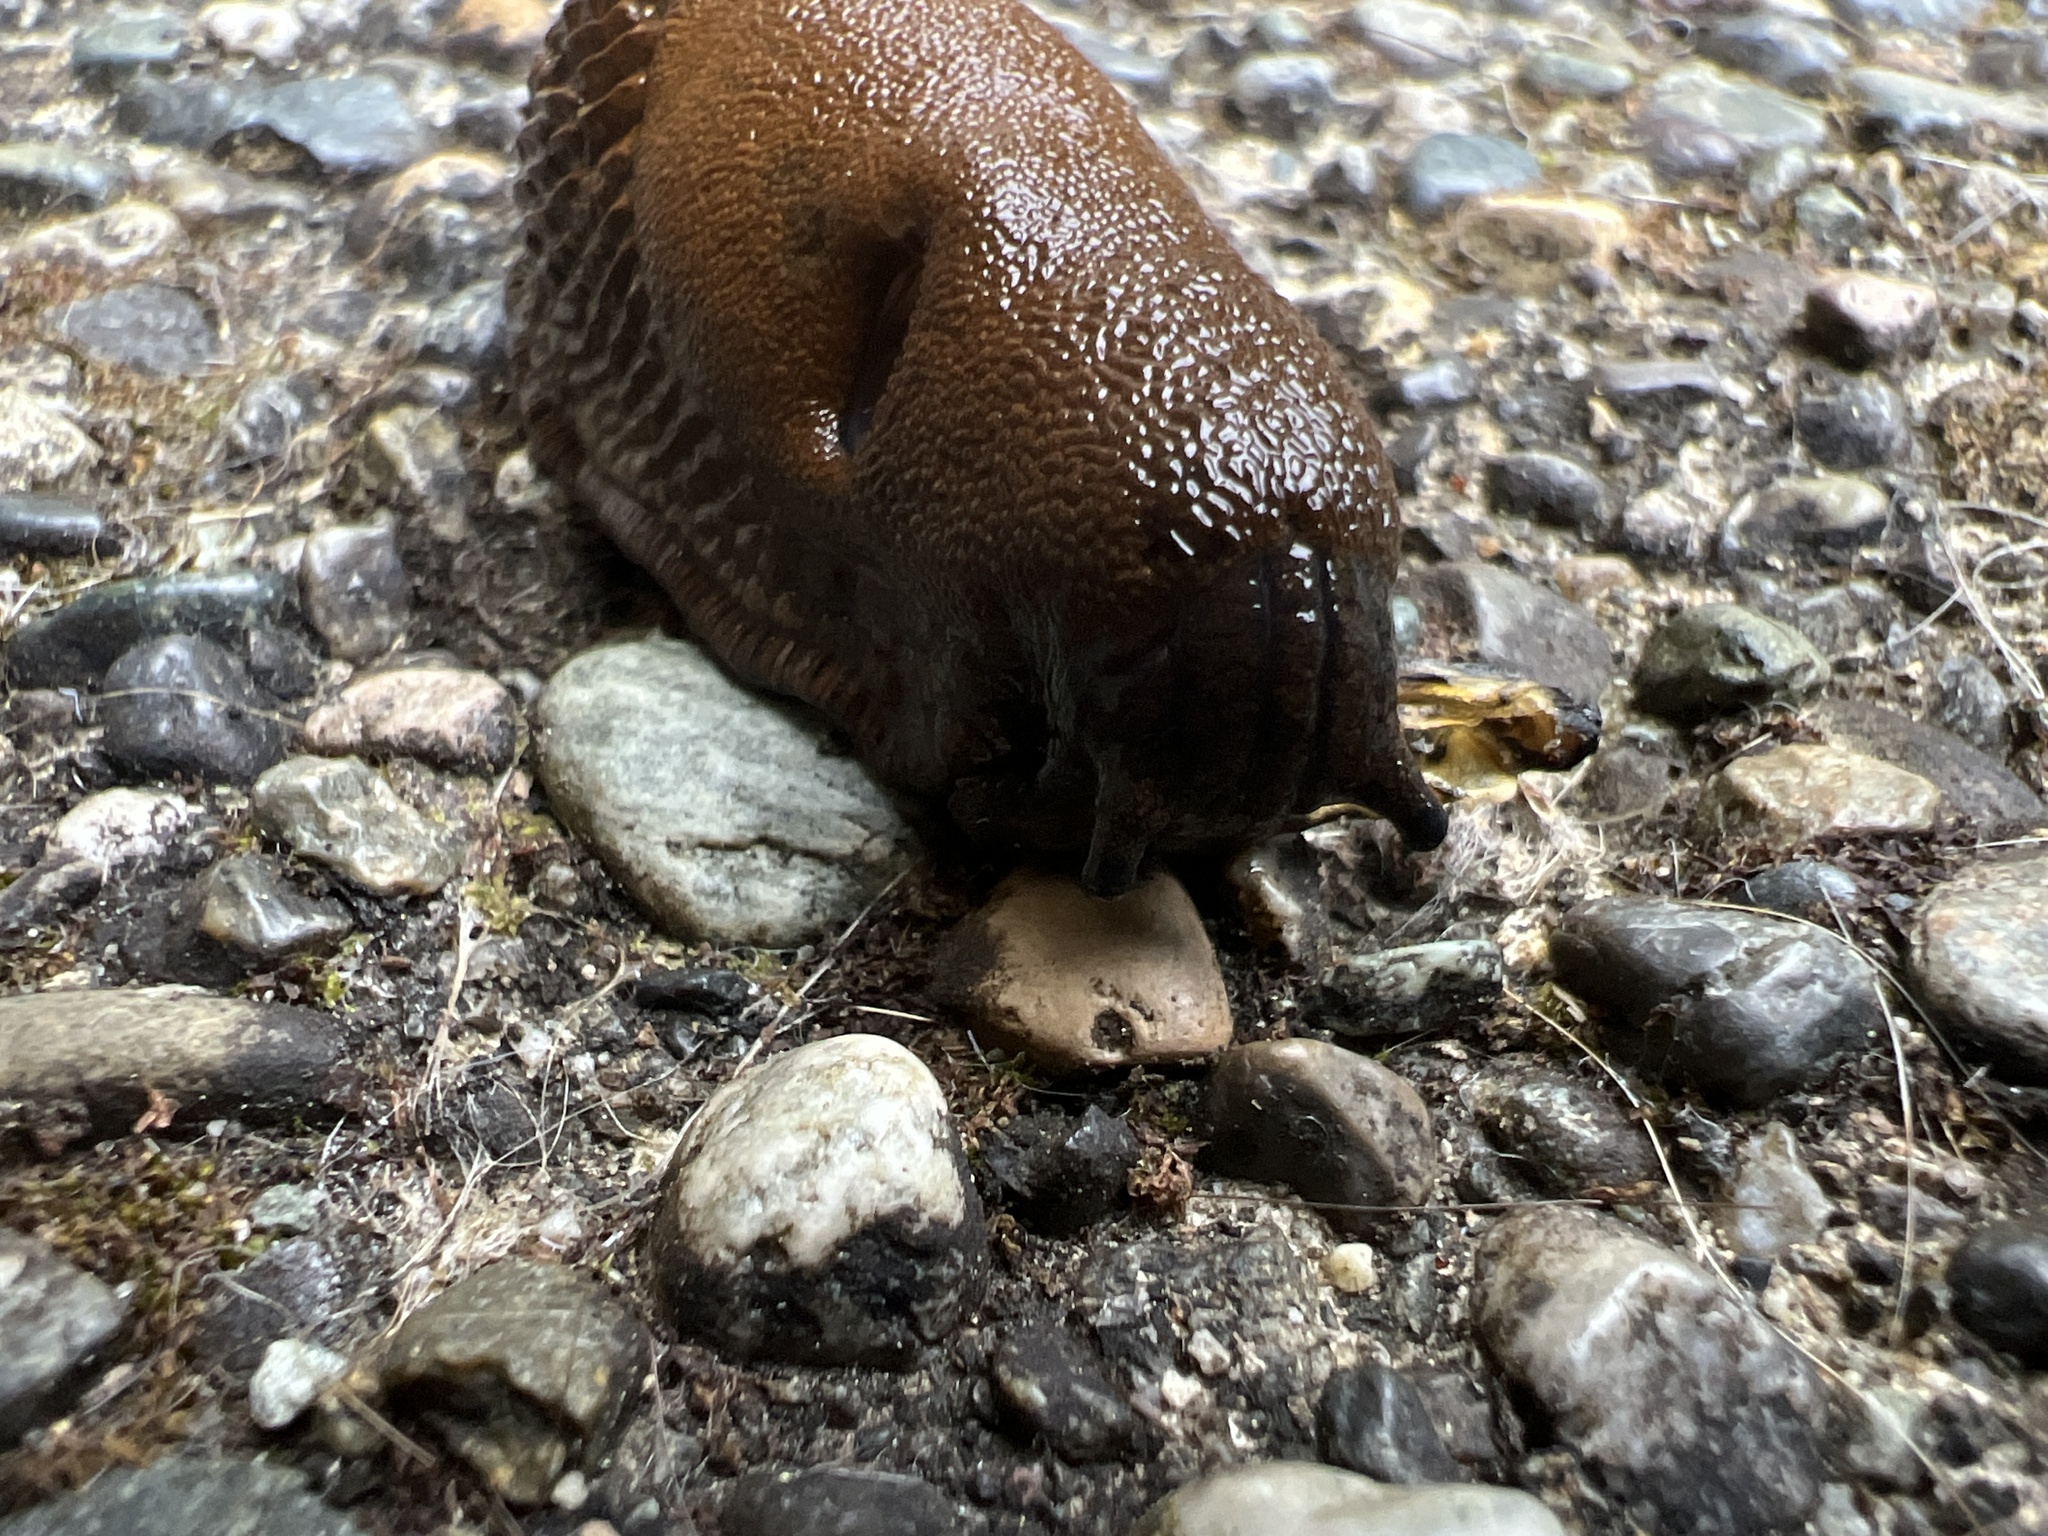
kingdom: Animalia
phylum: Mollusca
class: Gastropoda
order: Stylommatophora
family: Arionidae
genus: Arion
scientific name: Arion
